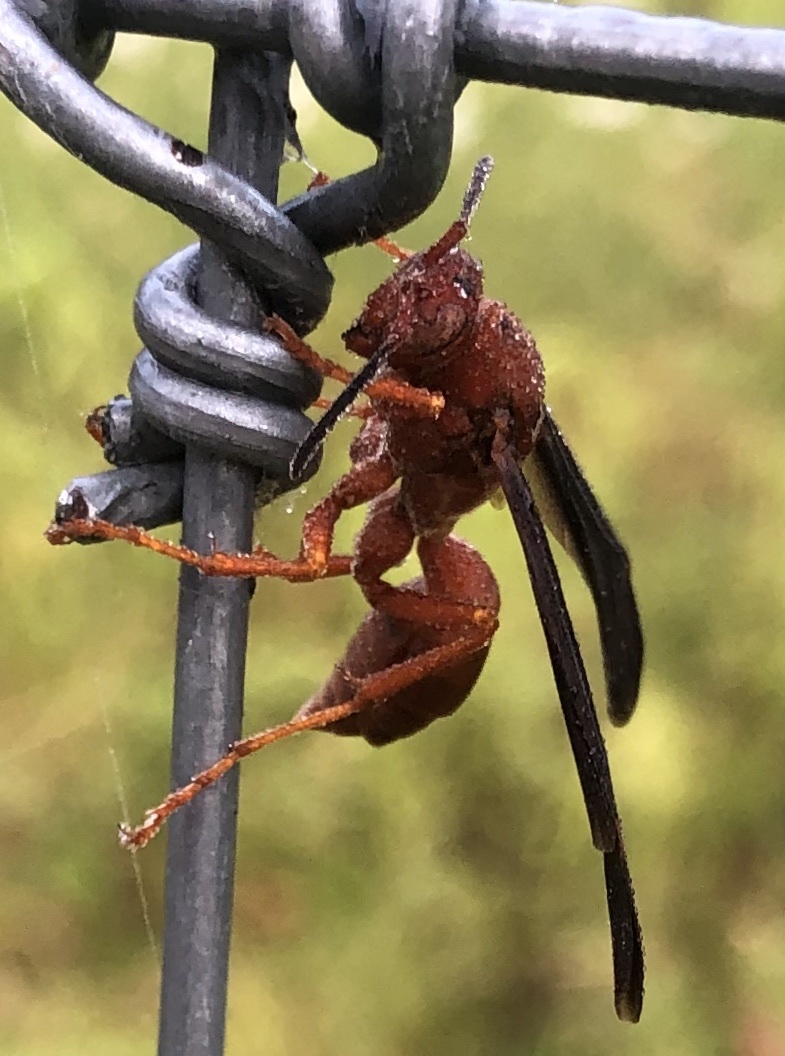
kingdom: Animalia
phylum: Arthropoda
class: Insecta
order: Hymenoptera
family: Eumenidae
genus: Polistes
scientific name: Polistes carolina
